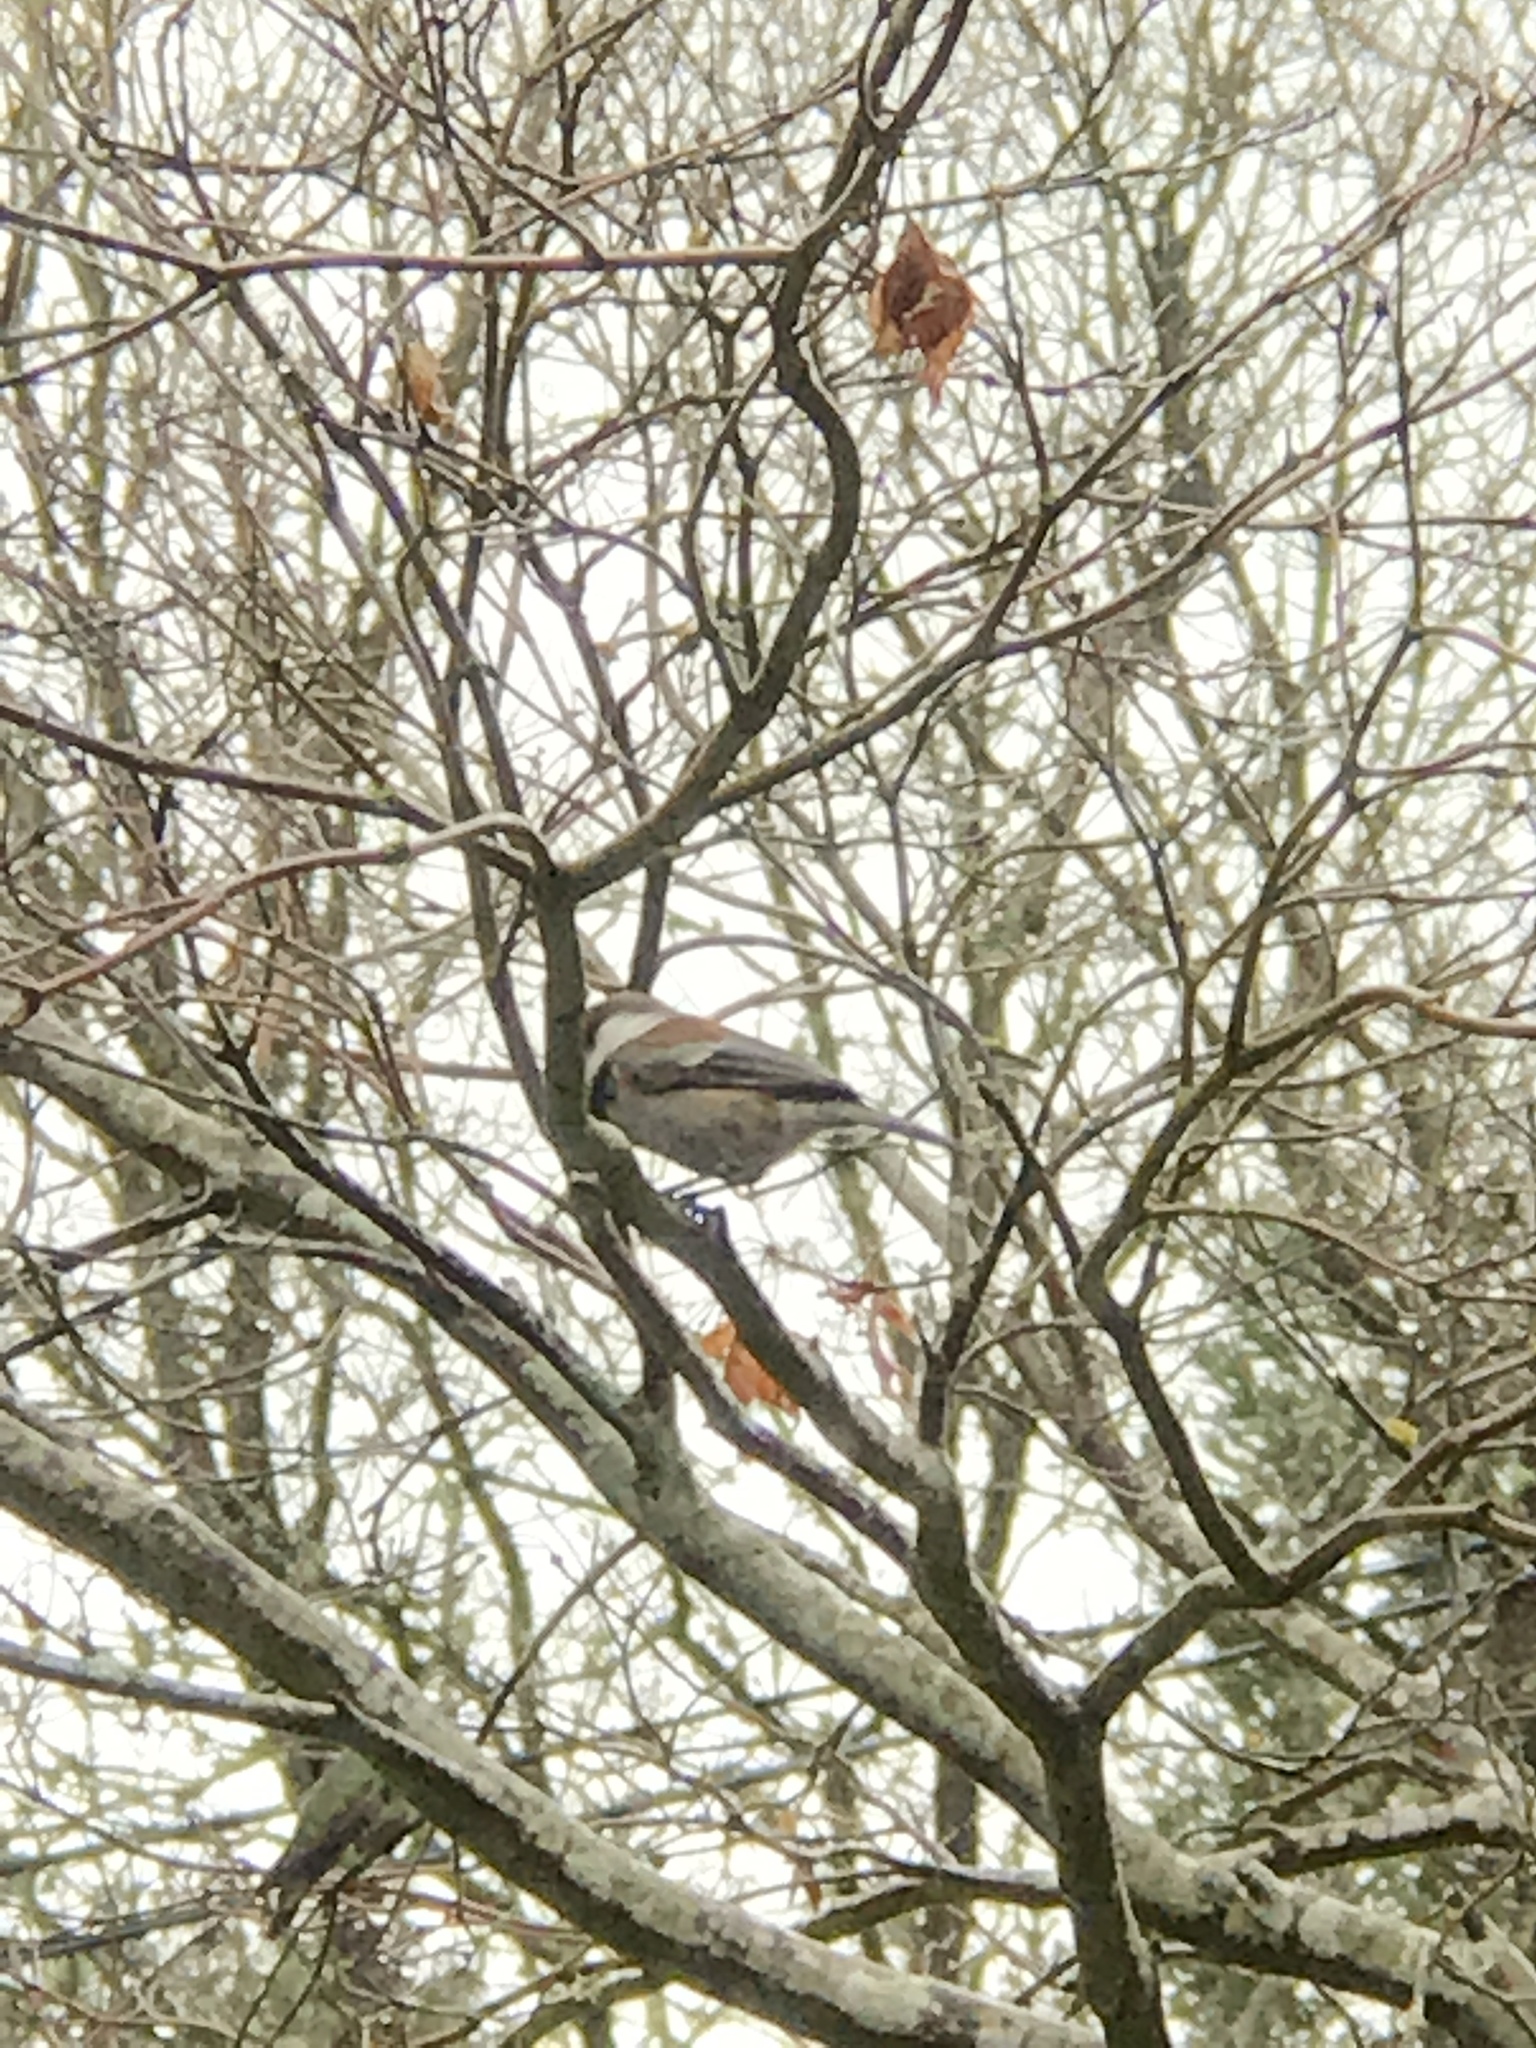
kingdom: Animalia
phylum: Chordata
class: Aves
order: Passeriformes
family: Paridae
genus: Poecile
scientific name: Poecile rufescens
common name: Chestnut-backed chickadee
